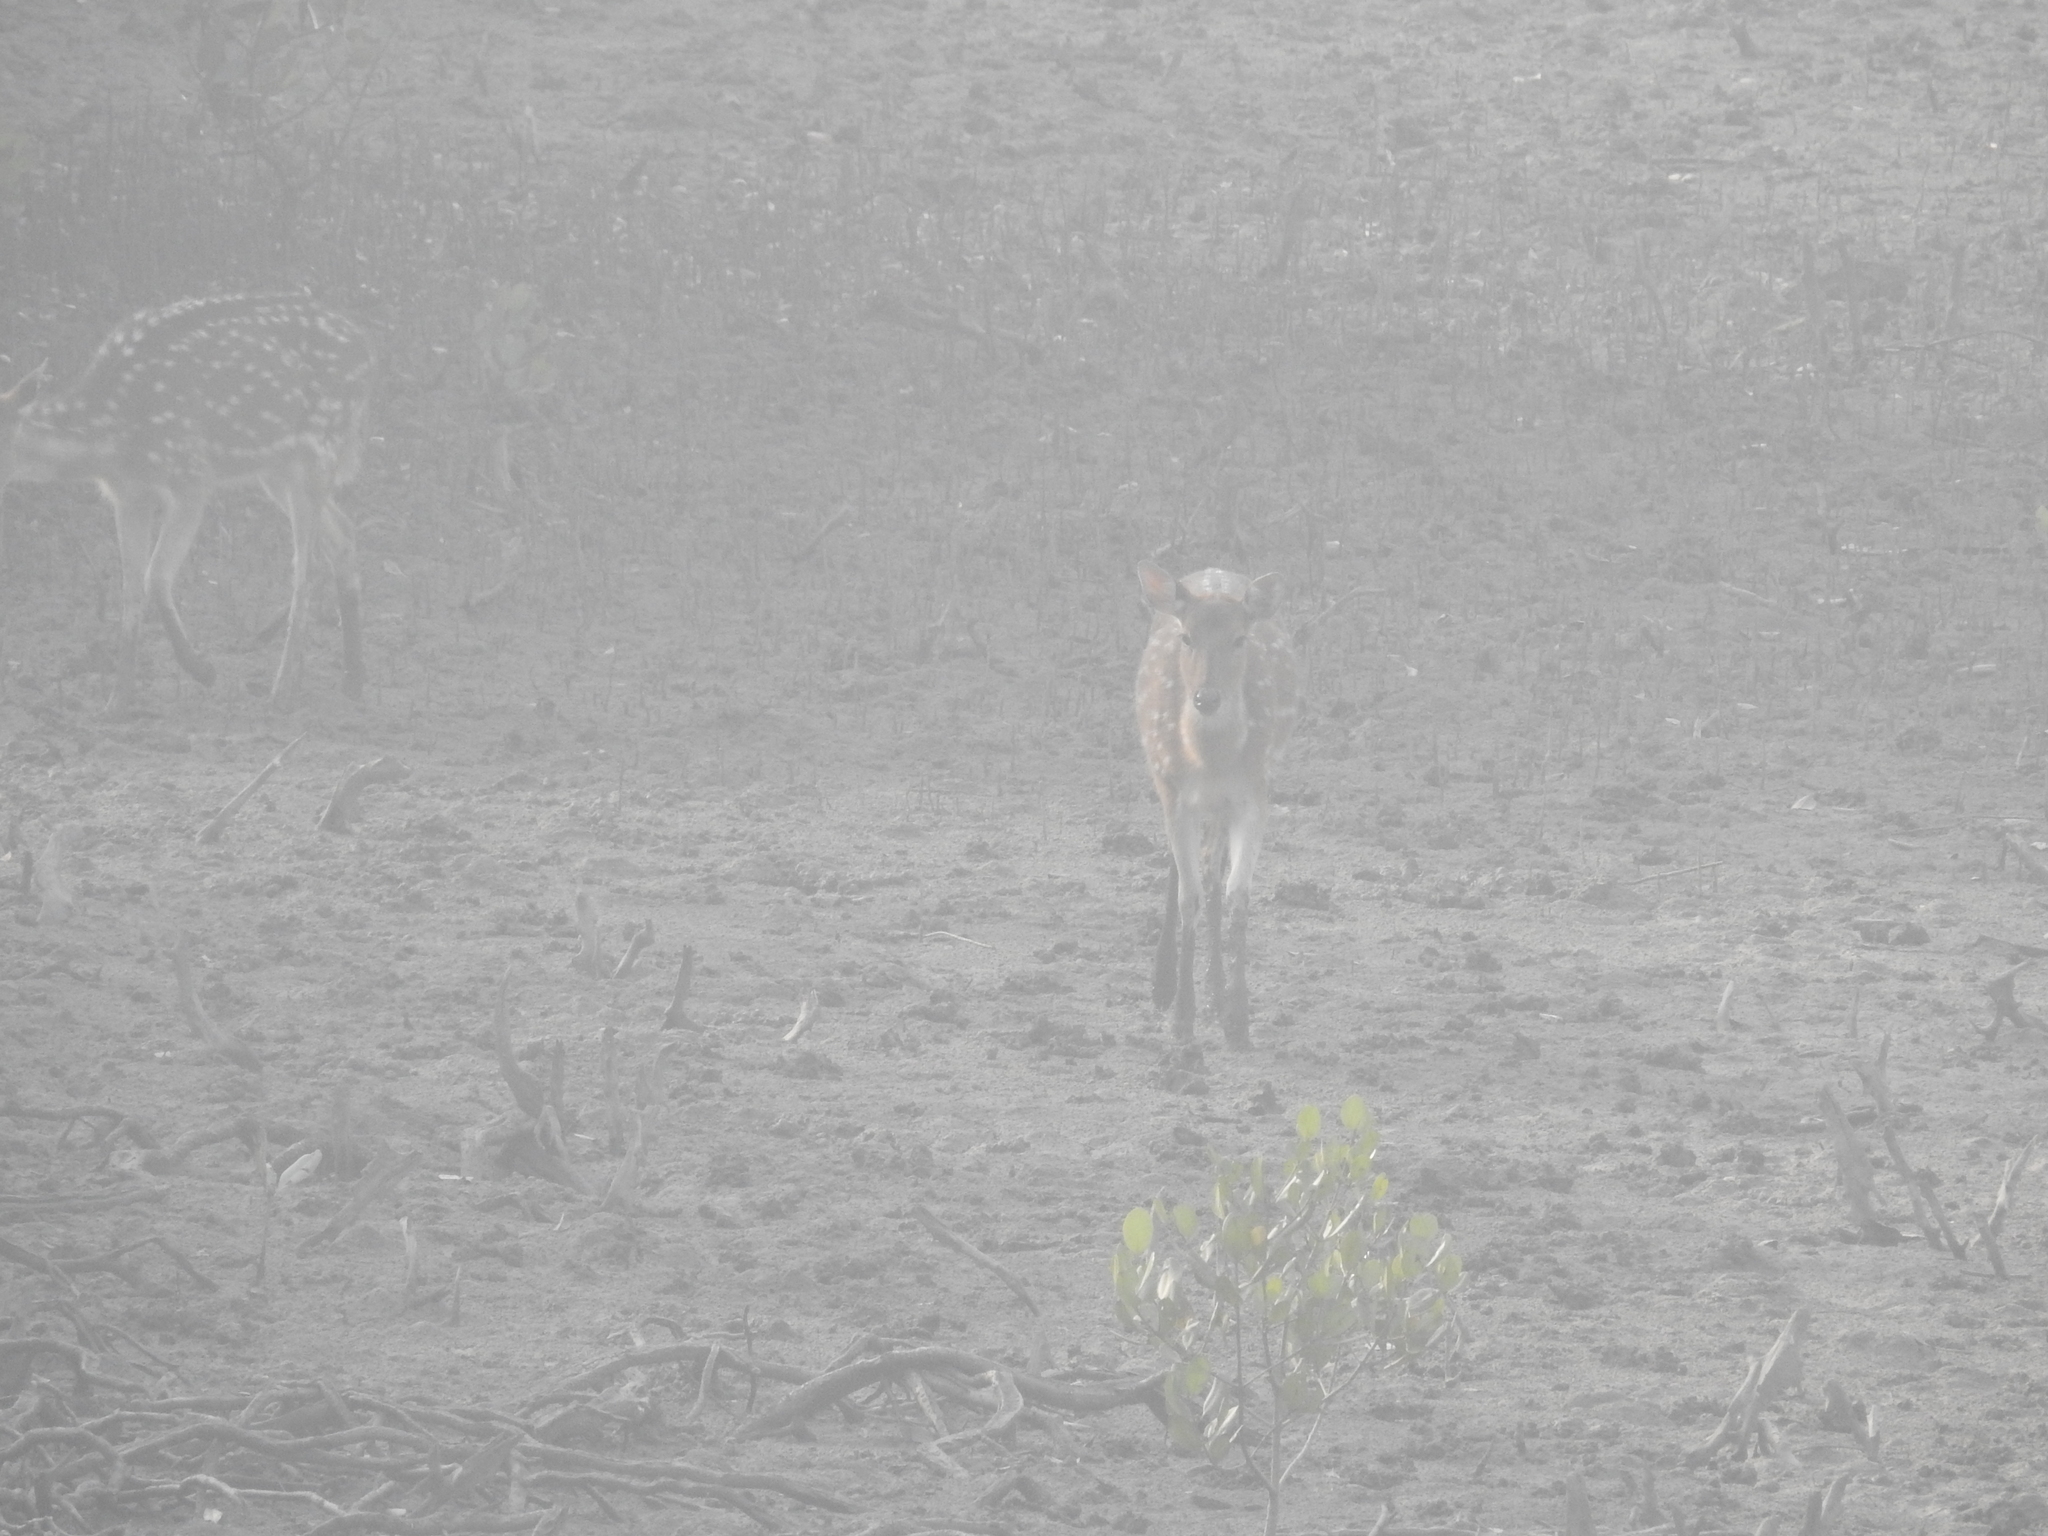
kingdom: Animalia
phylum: Chordata
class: Mammalia
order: Artiodactyla
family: Cervidae
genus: Axis
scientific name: Axis axis
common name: Chital
